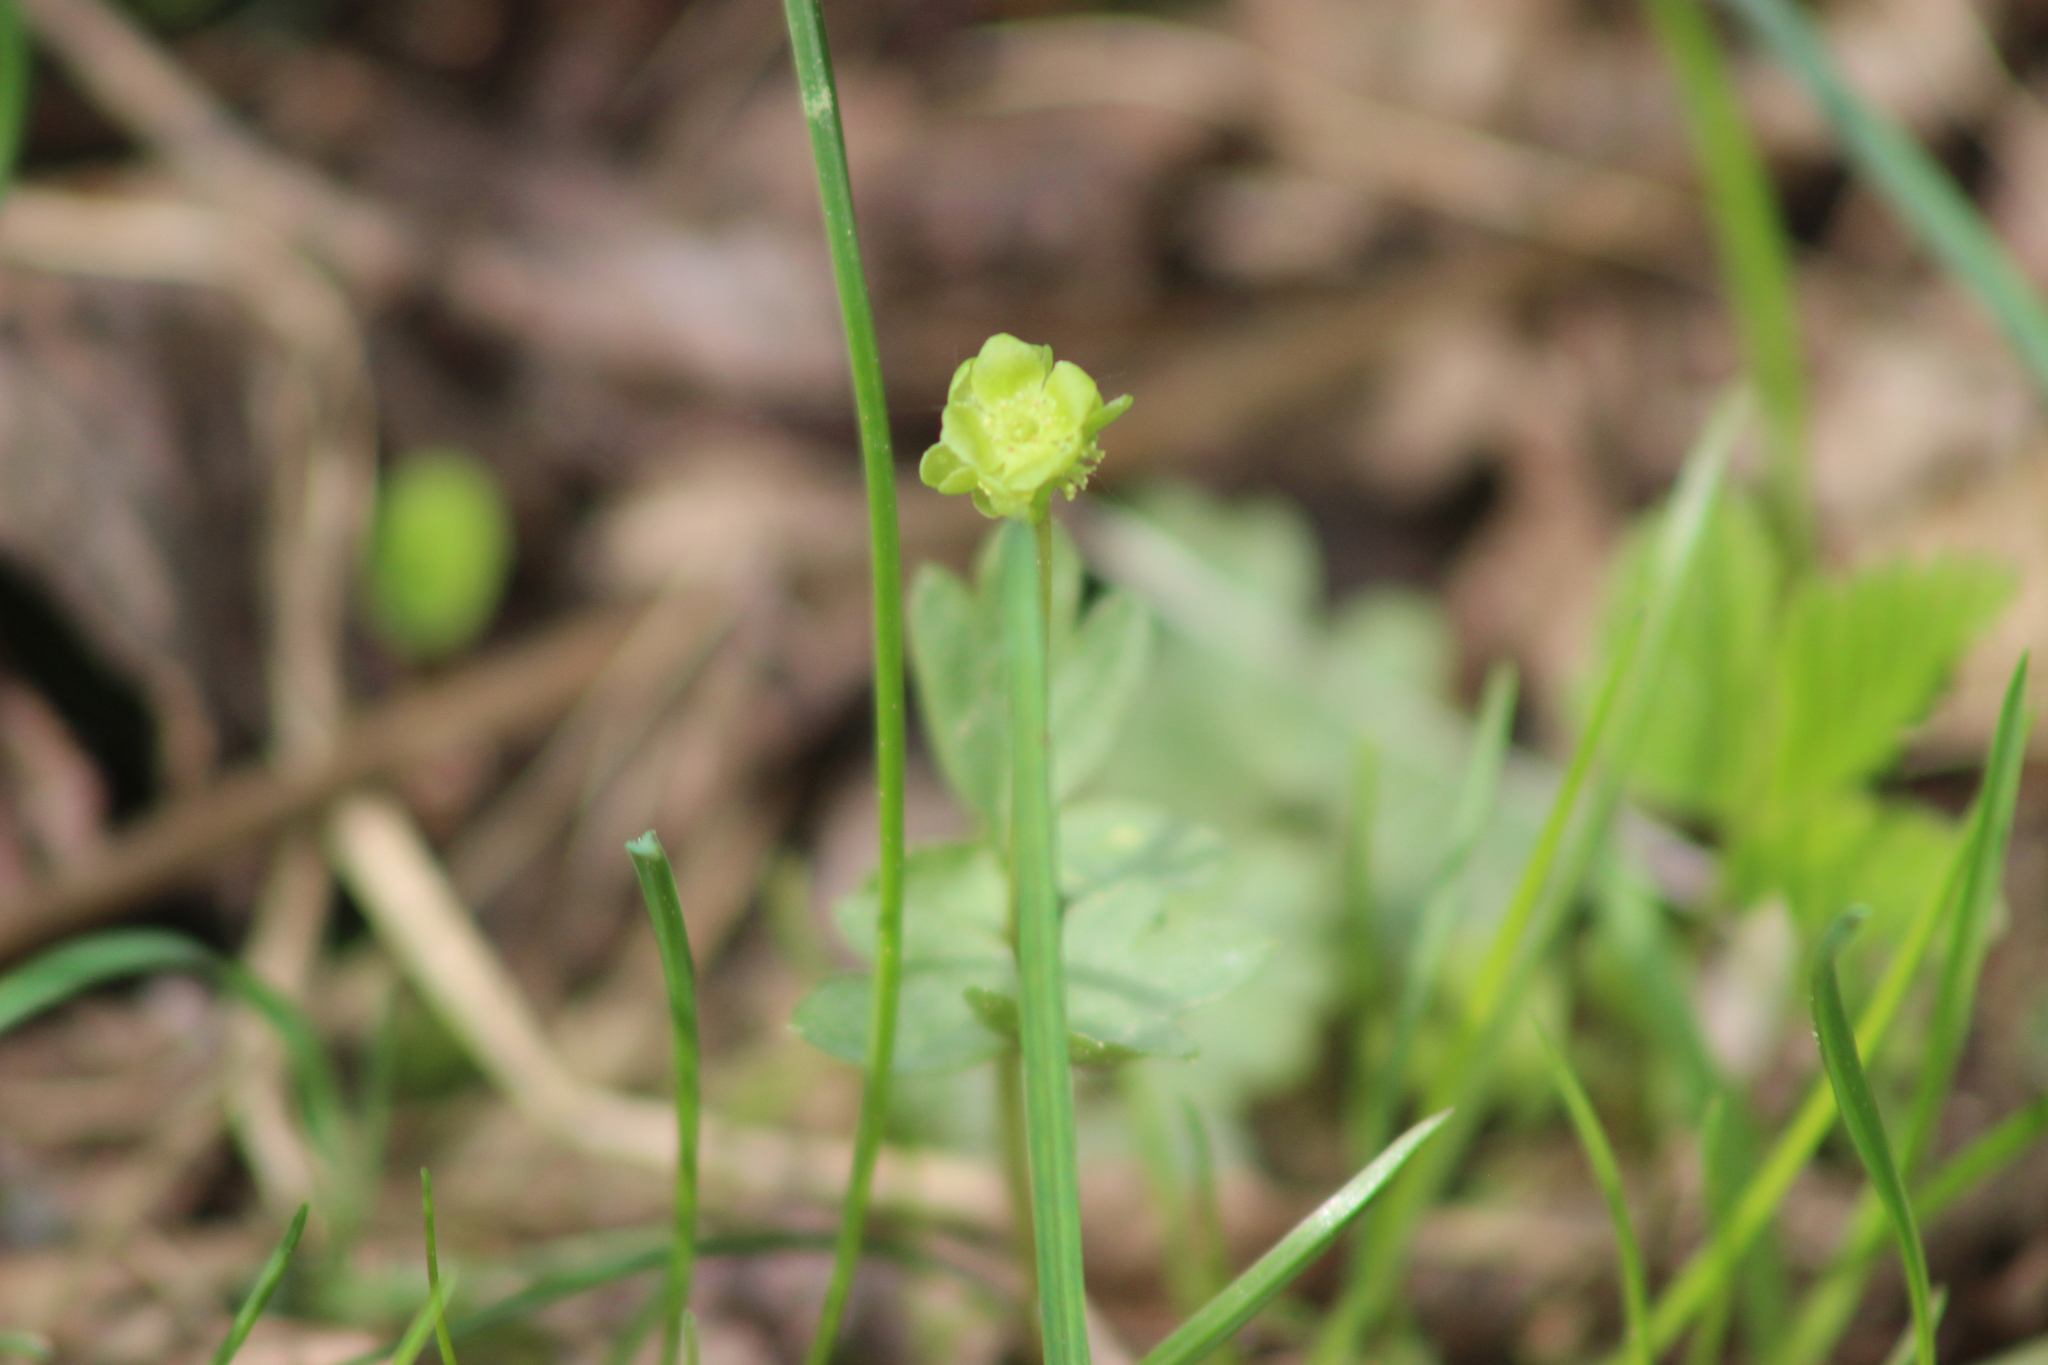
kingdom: Plantae
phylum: Tracheophyta
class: Magnoliopsida
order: Dipsacales
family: Viburnaceae
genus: Adoxa
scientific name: Adoxa moschatellina
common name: Moschatel
